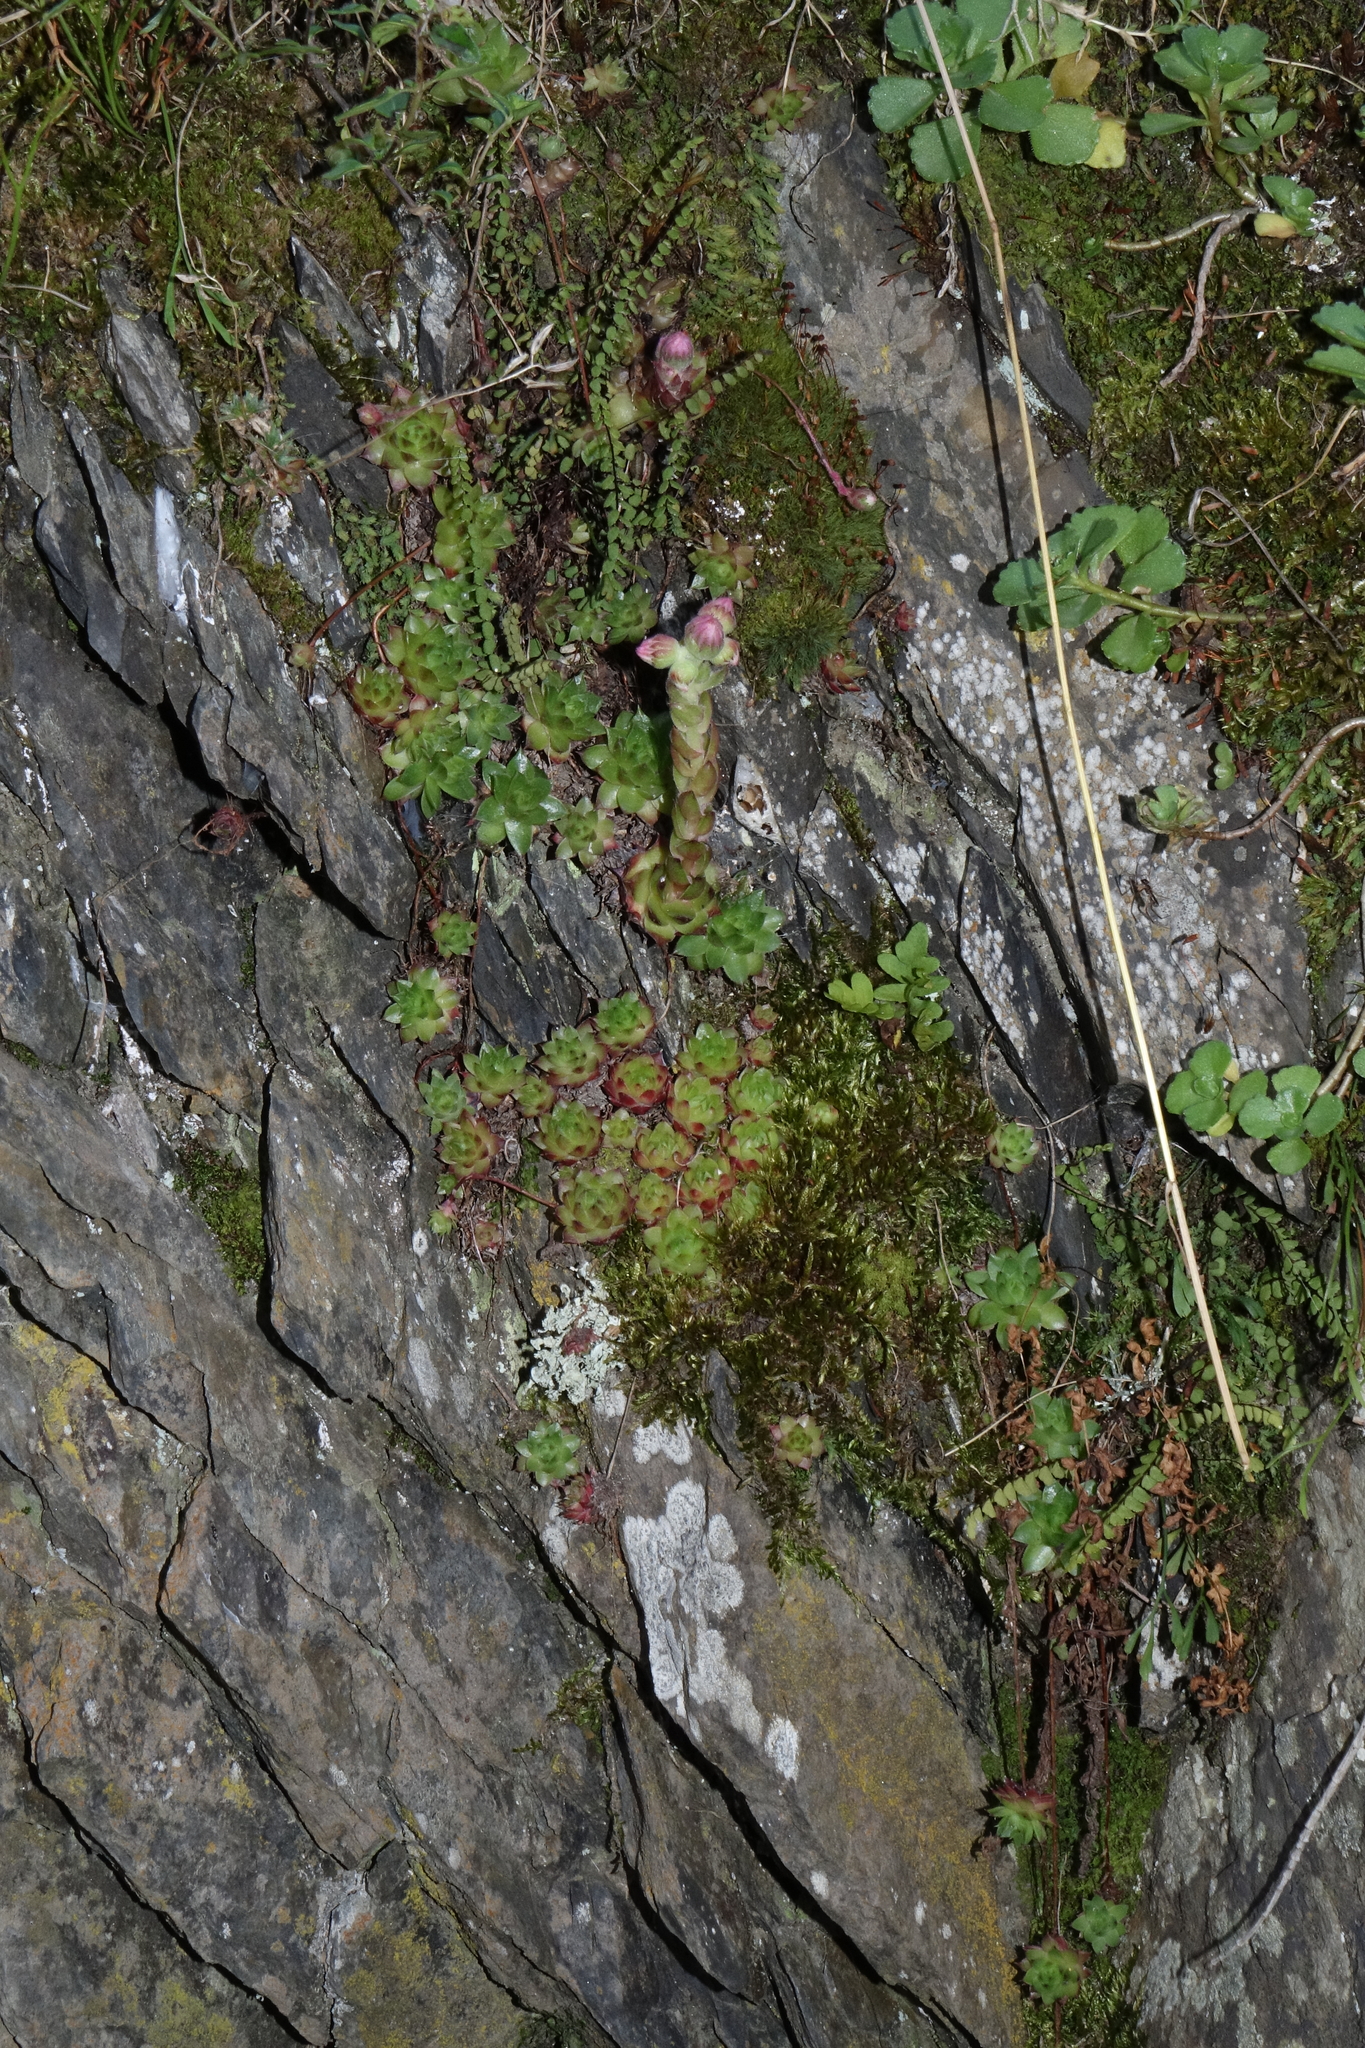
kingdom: Plantae
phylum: Tracheophyta
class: Magnoliopsida
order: Saxifragales
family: Crassulaceae
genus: Sempervivum
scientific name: Sempervivum caucasicum
